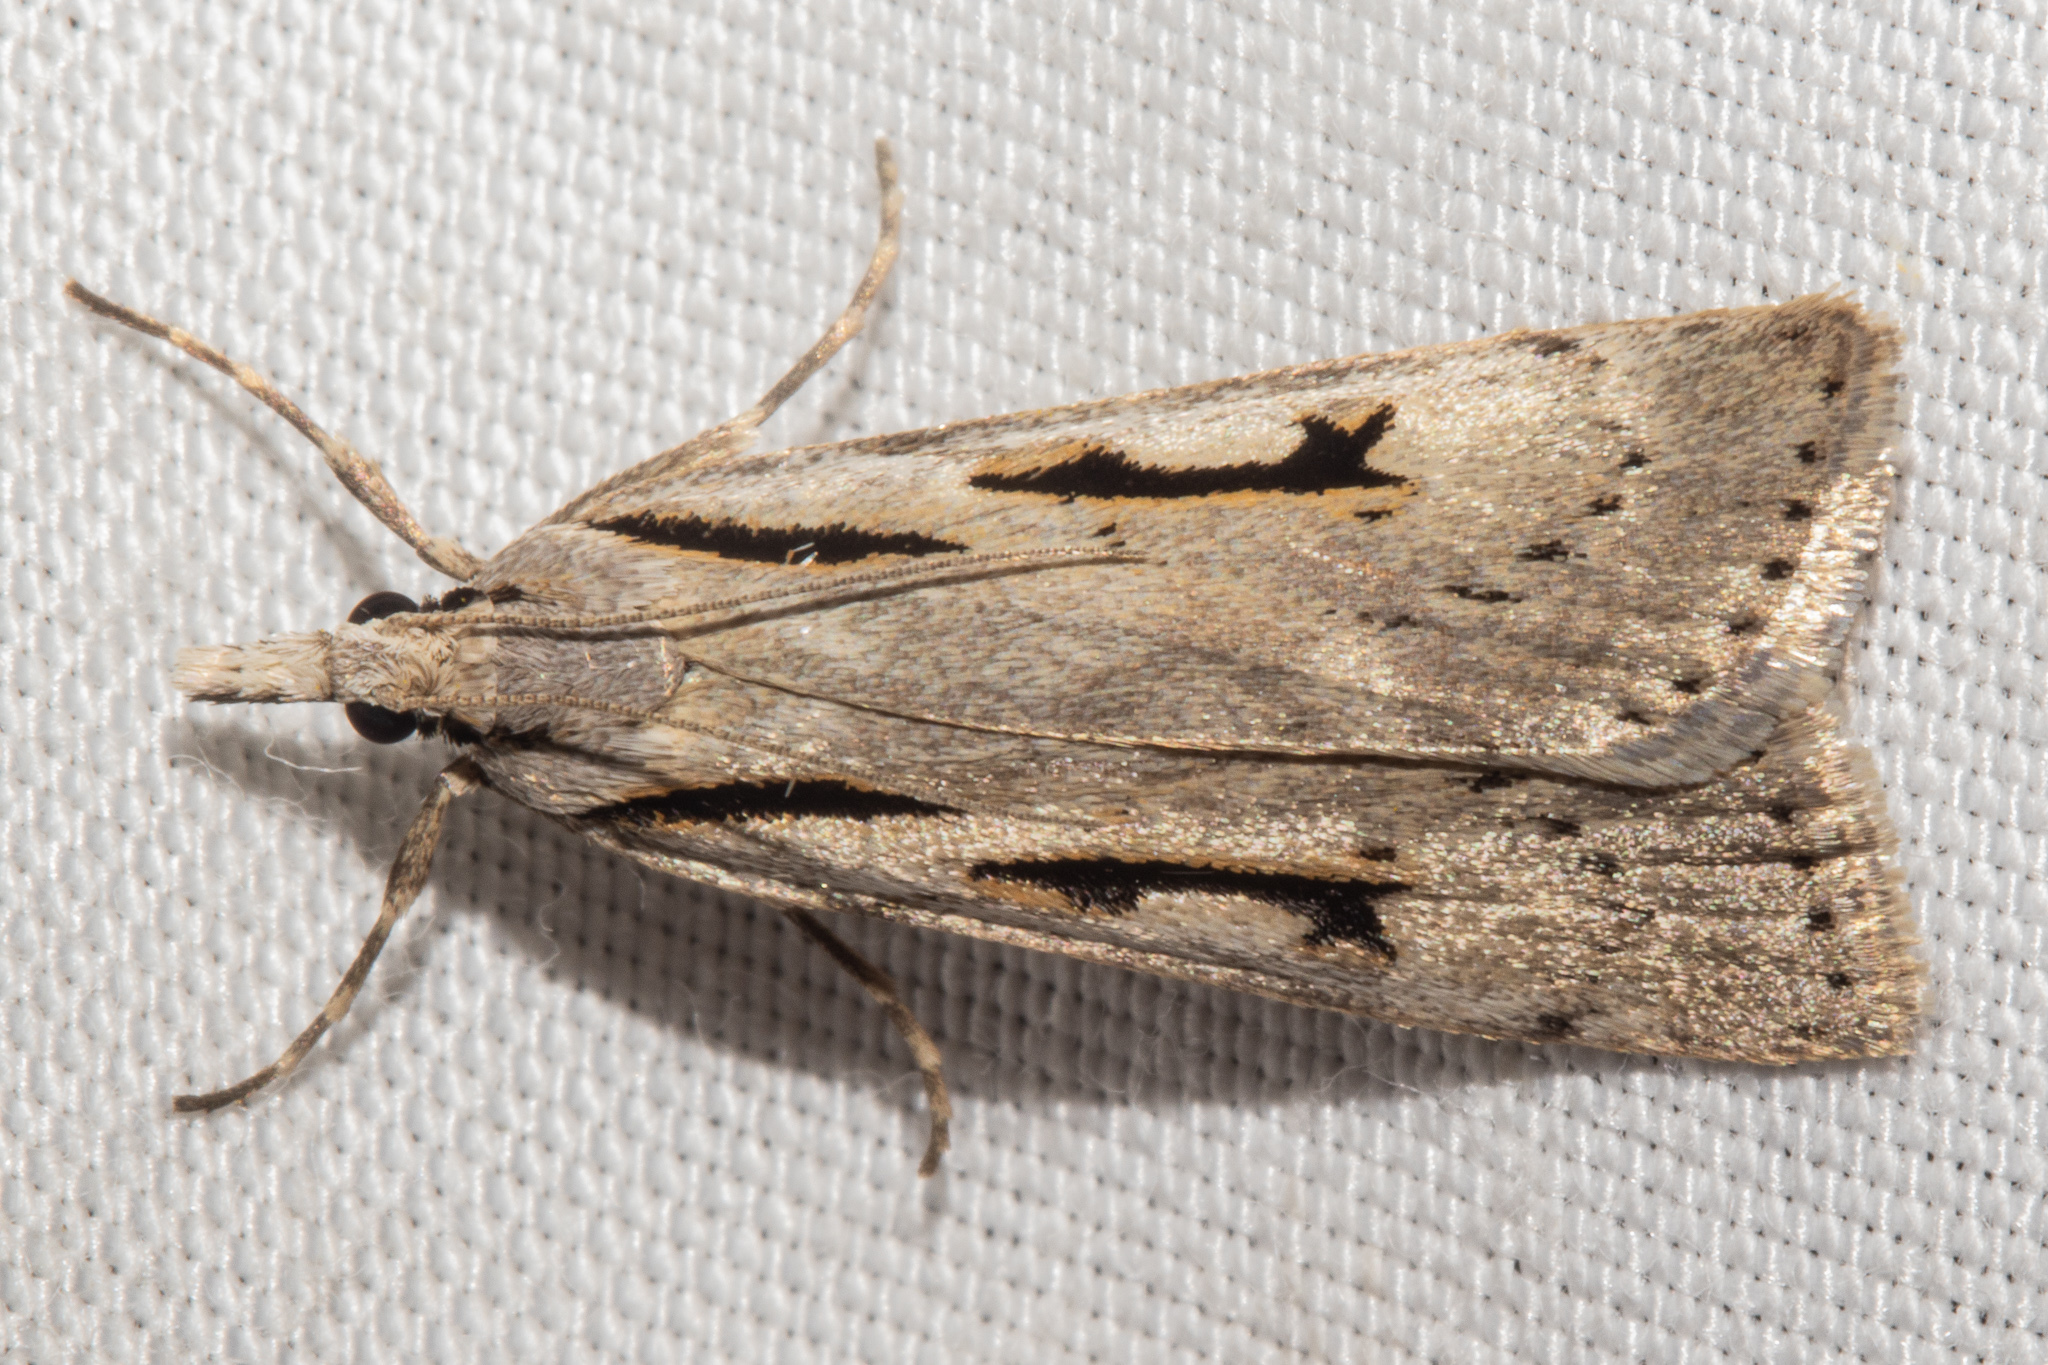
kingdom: Animalia
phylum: Arthropoda
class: Insecta
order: Lepidoptera
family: Crambidae
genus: Scoparia
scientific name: Scoparia rotuellus
